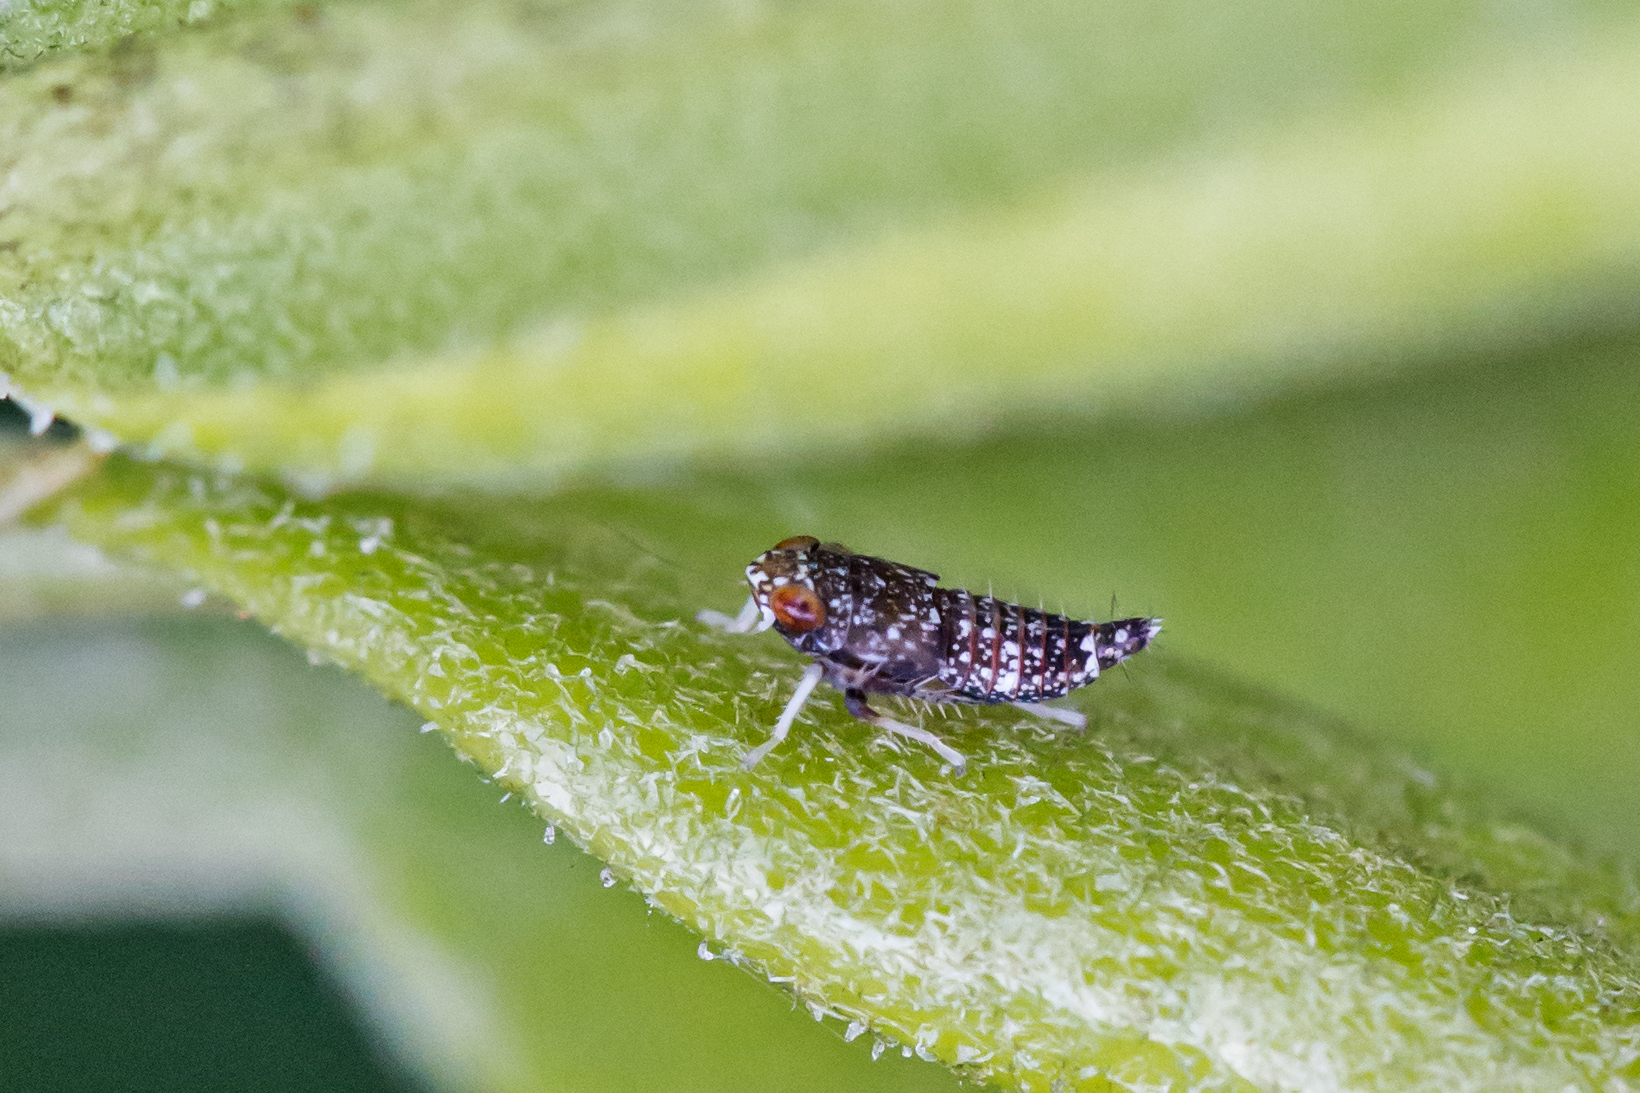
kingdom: Animalia
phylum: Arthropoda
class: Insecta
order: Hemiptera
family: Cicadellidae
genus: Orientus
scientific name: Orientus ishidae
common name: Japanese leafhopper
